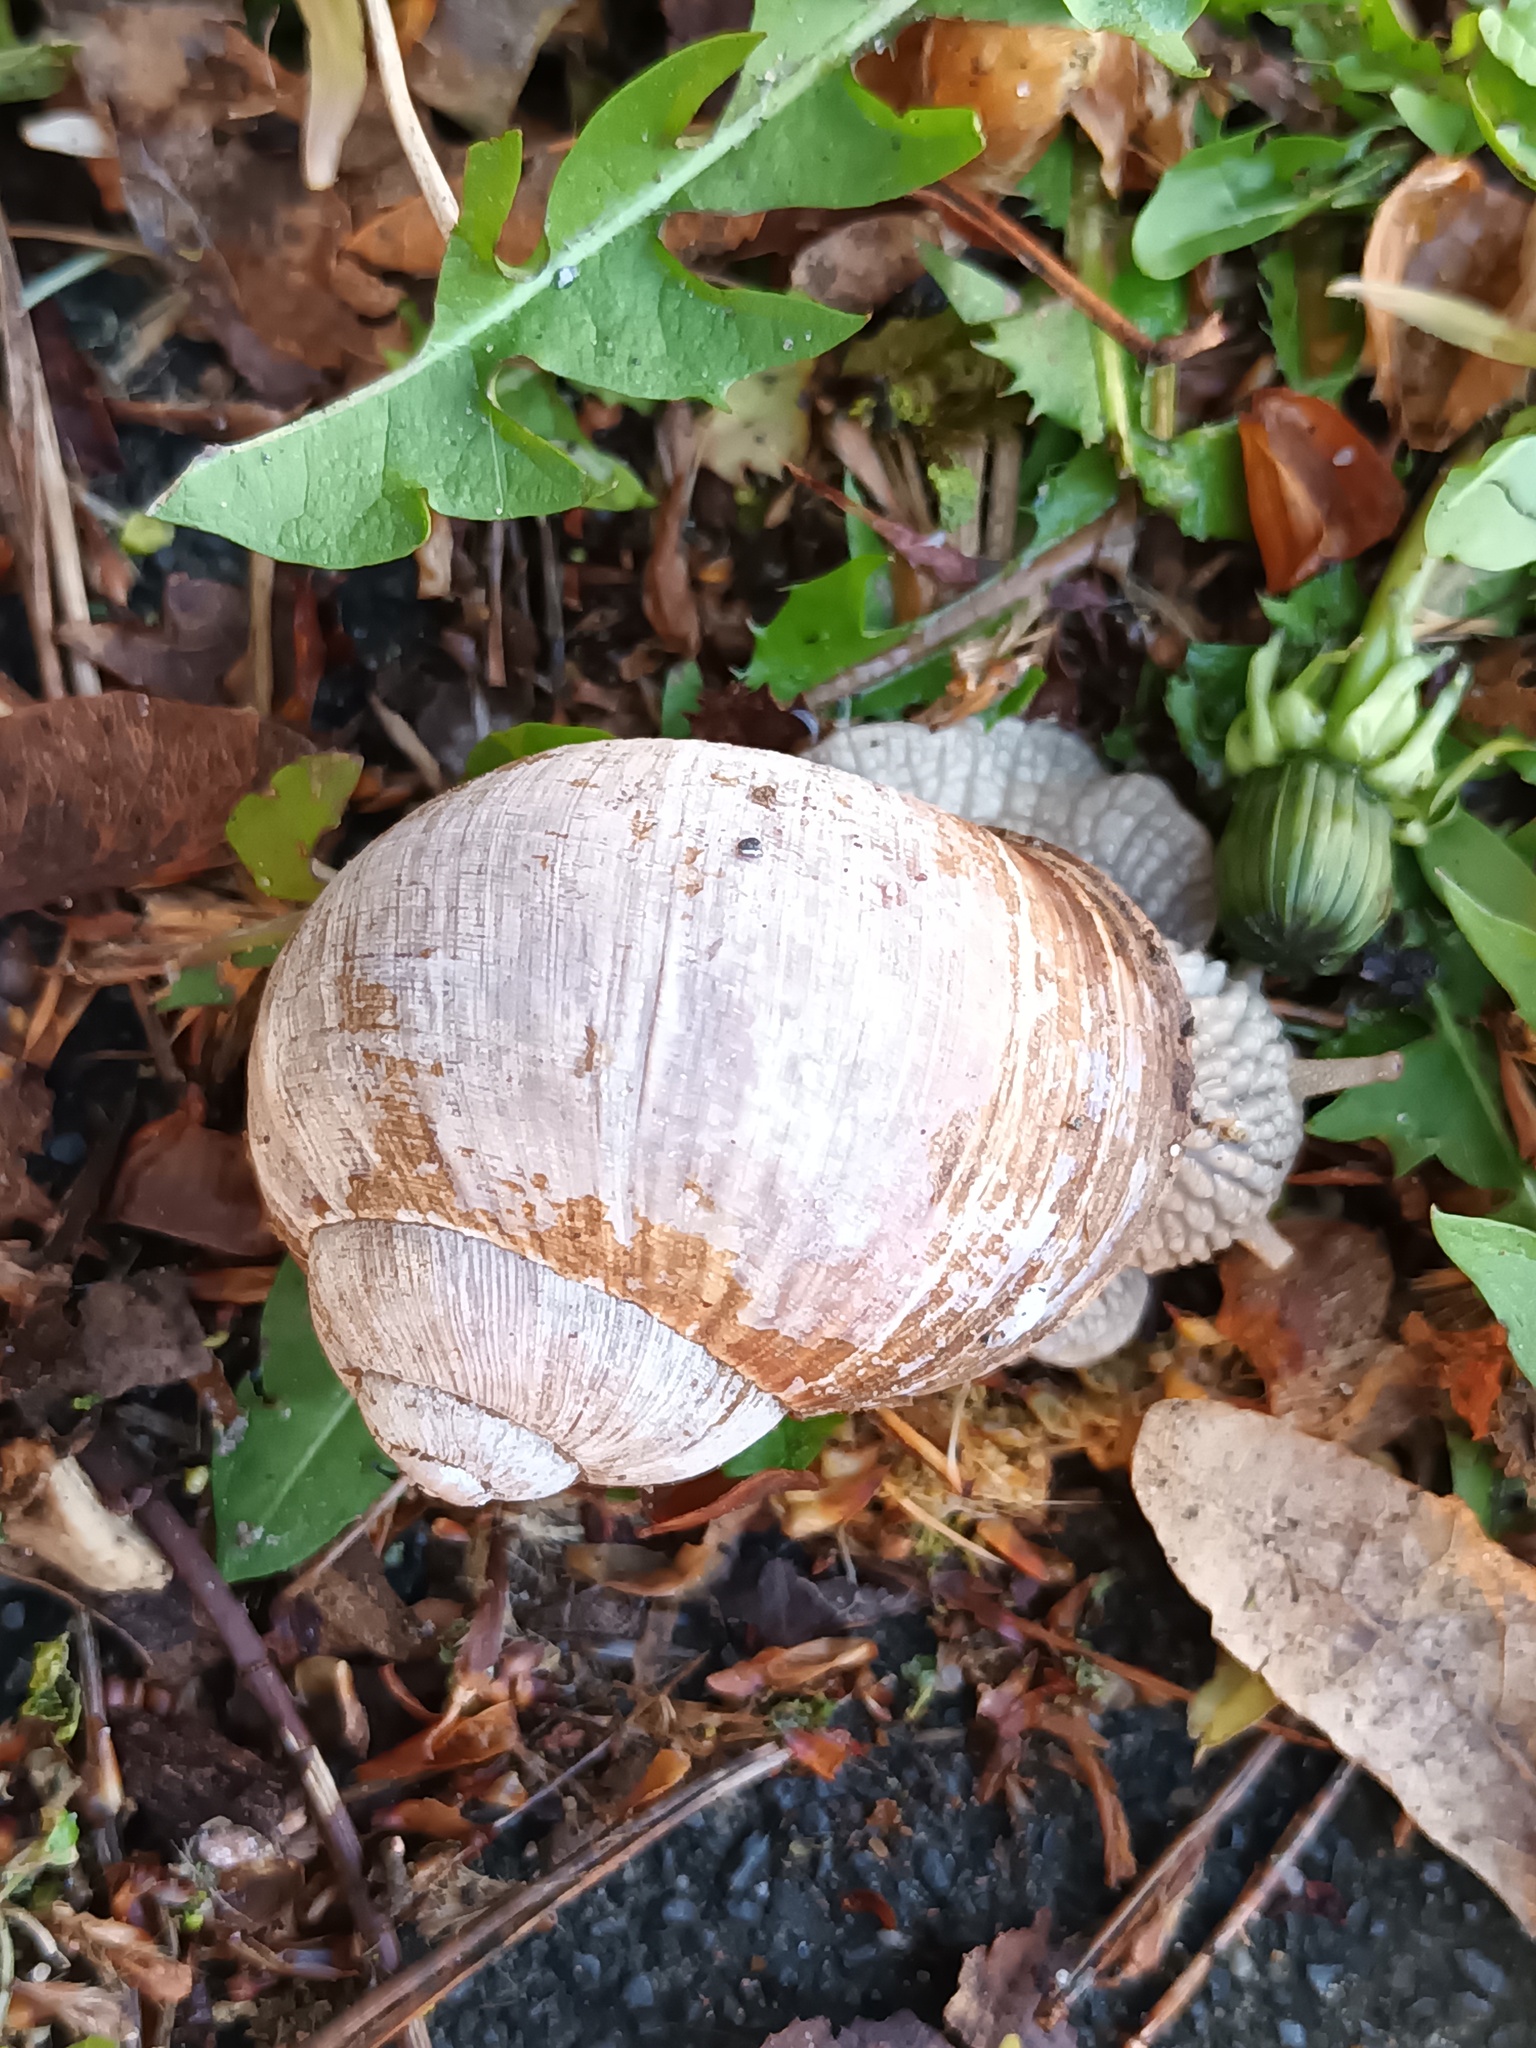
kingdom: Animalia
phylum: Mollusca
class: Gastropoda
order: Stylommatophora
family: Helicidae
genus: Helix
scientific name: Helix pomatia
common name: Roman snail
